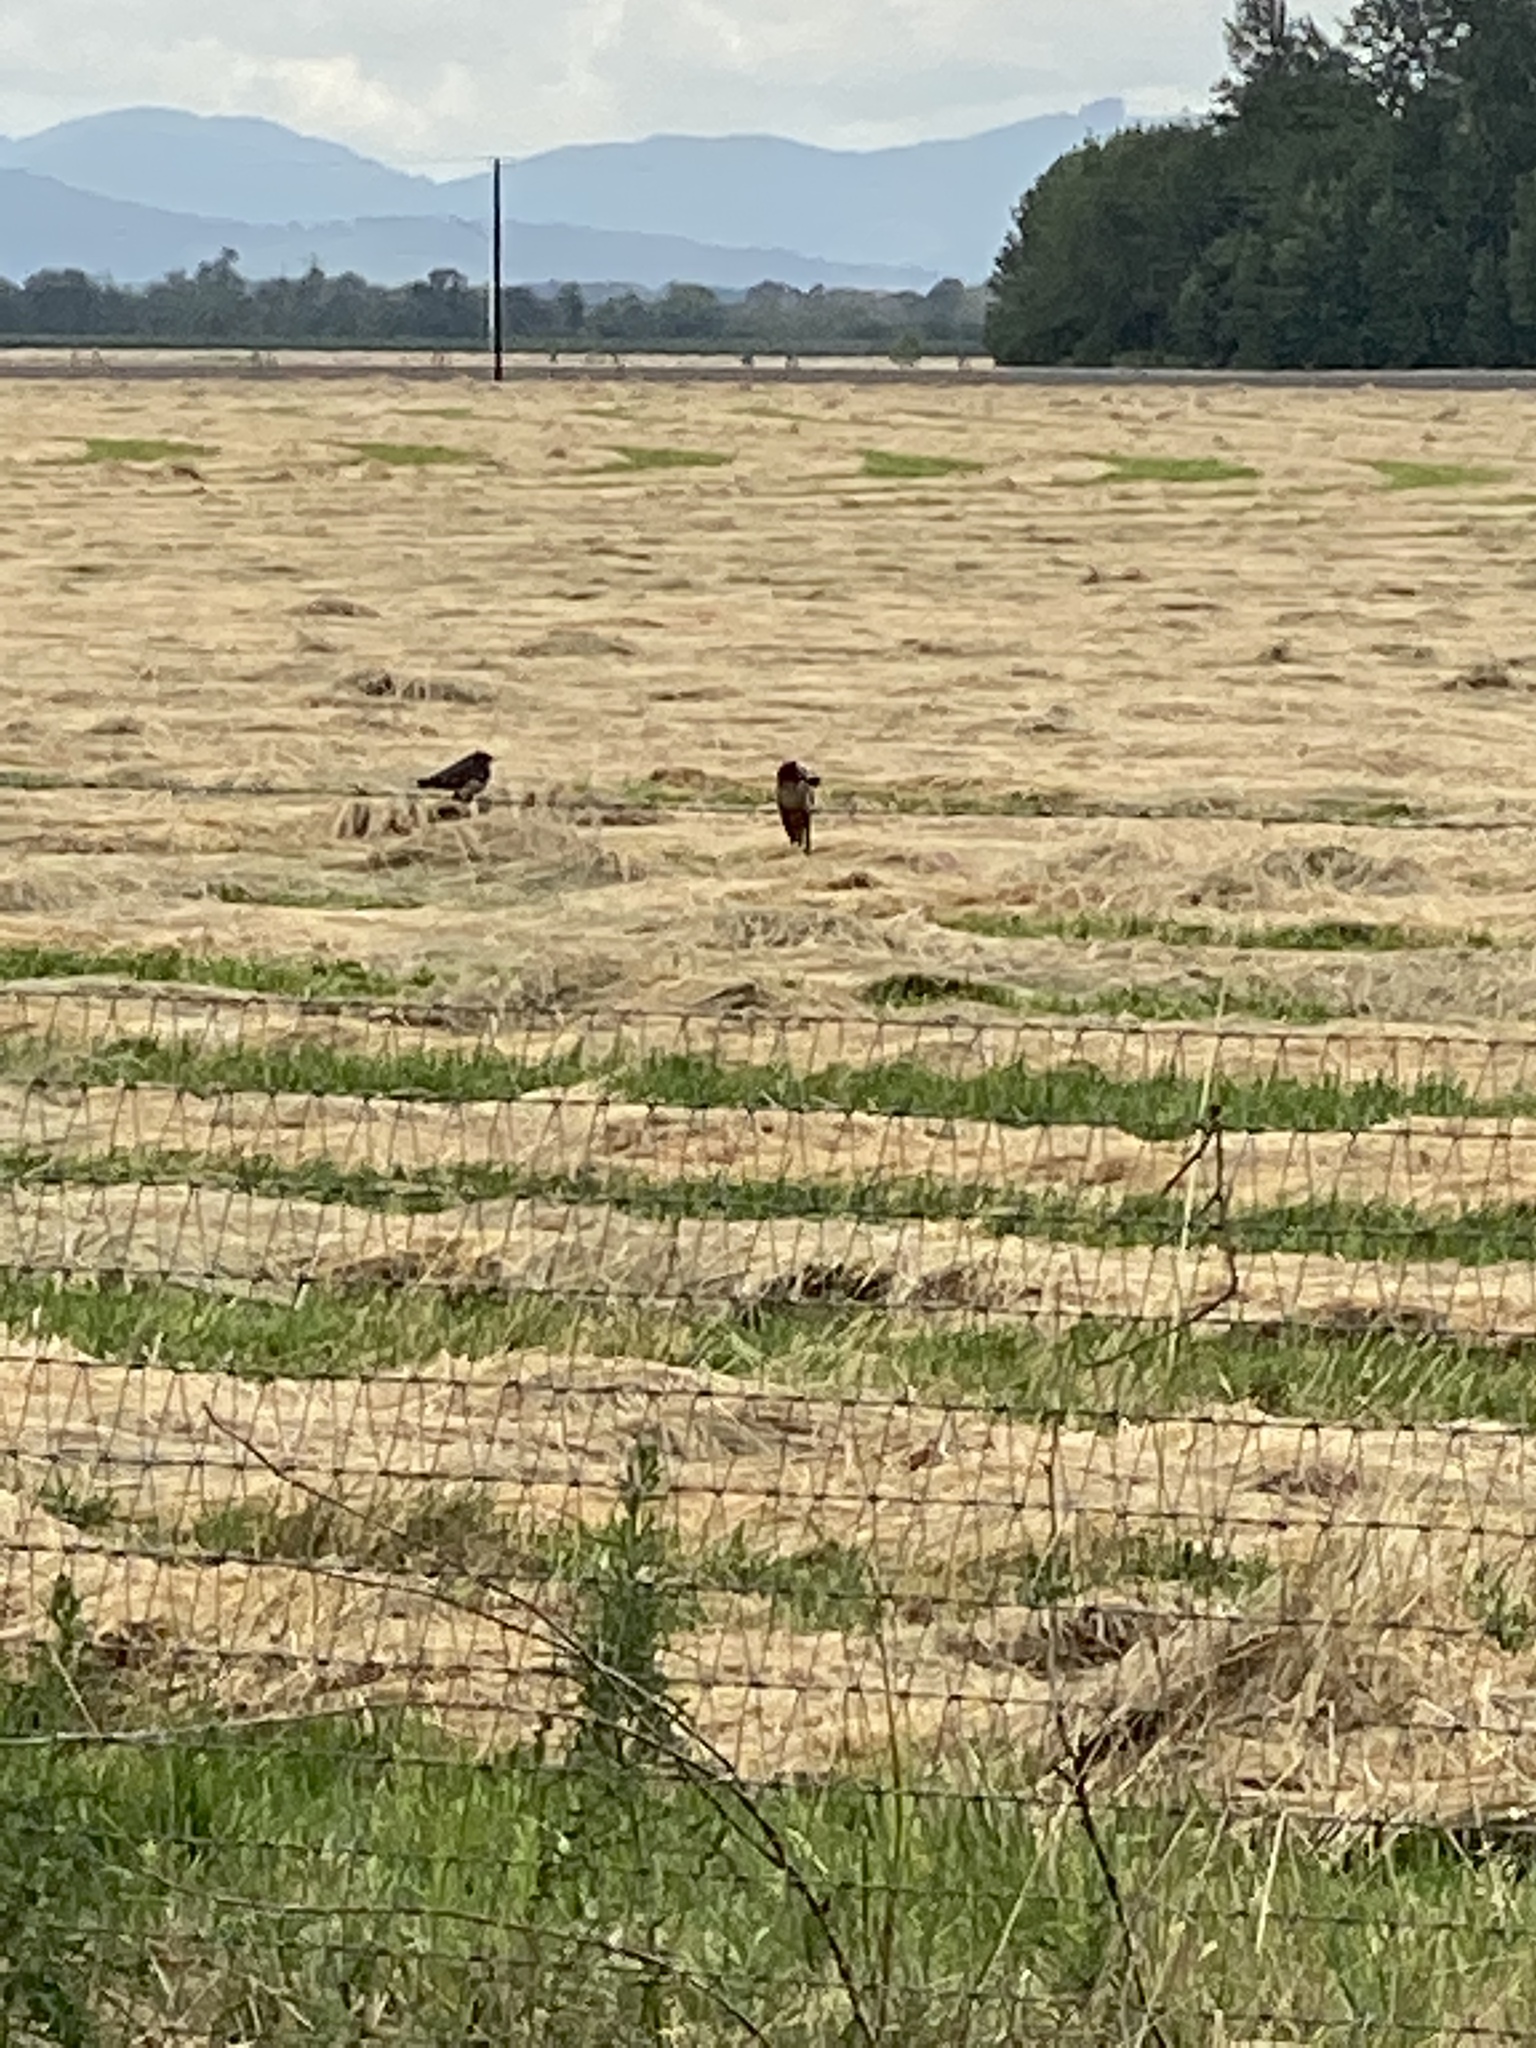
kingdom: Animalia
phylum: Chordata
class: Aves
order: Passeriformes
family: Hirundinidae
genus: Hirundo
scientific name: Hirundo rustica
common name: Barn swallow
